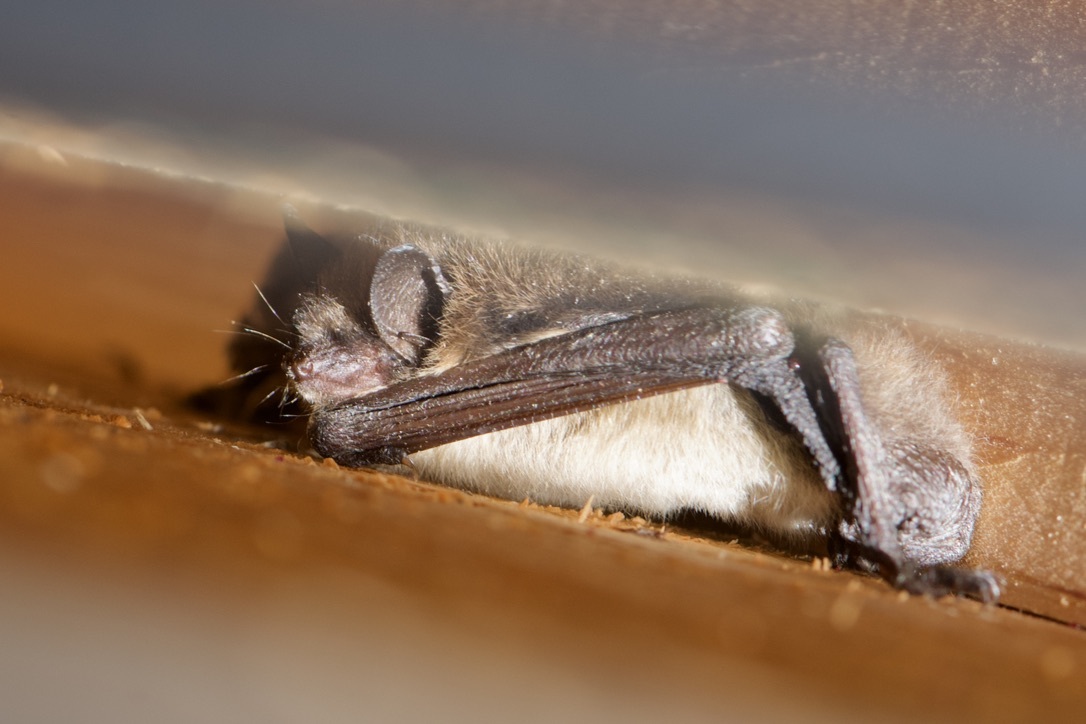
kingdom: Animalia
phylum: Chordata
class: Mammalia
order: Chiroptera
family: Vespertilionidae
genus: Myotis
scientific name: Myotis lucifugus
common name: Little brown bat
